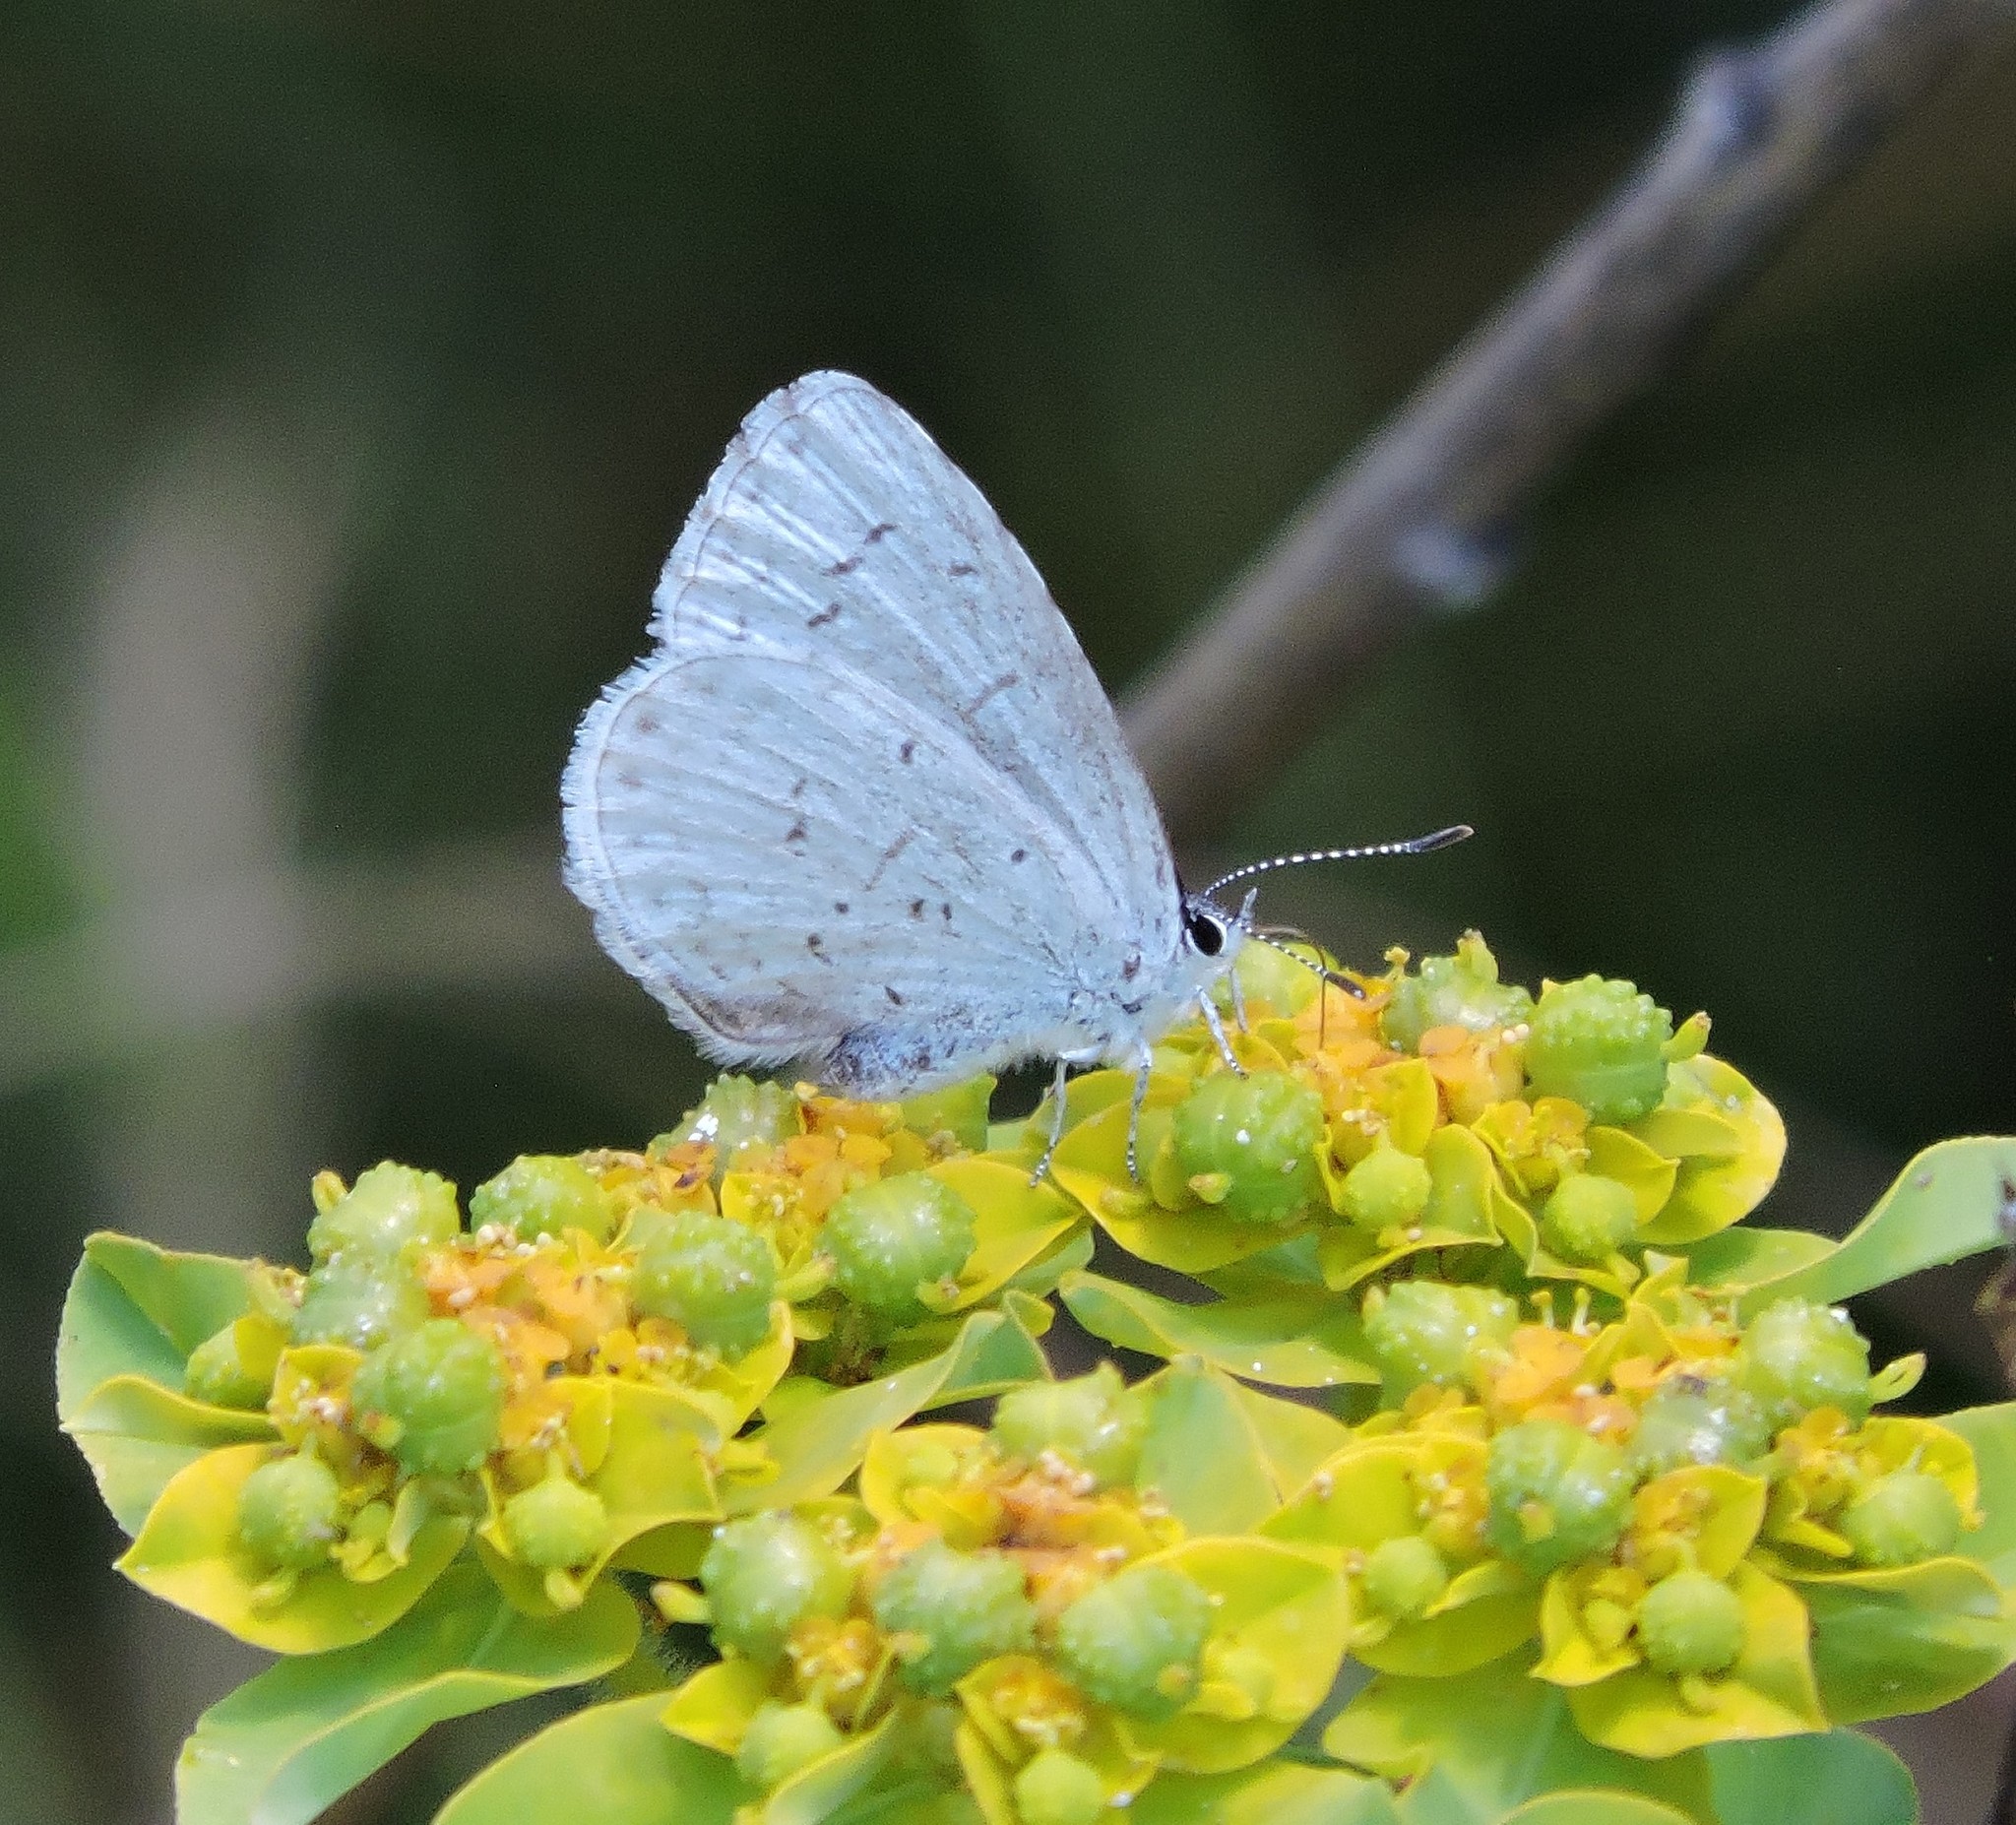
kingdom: Animalia
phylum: Arthropoda
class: Insecta
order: Lepidoptera
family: Lycaenidae
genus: Celastrina
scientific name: Celastrina ladon
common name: Spring azure
